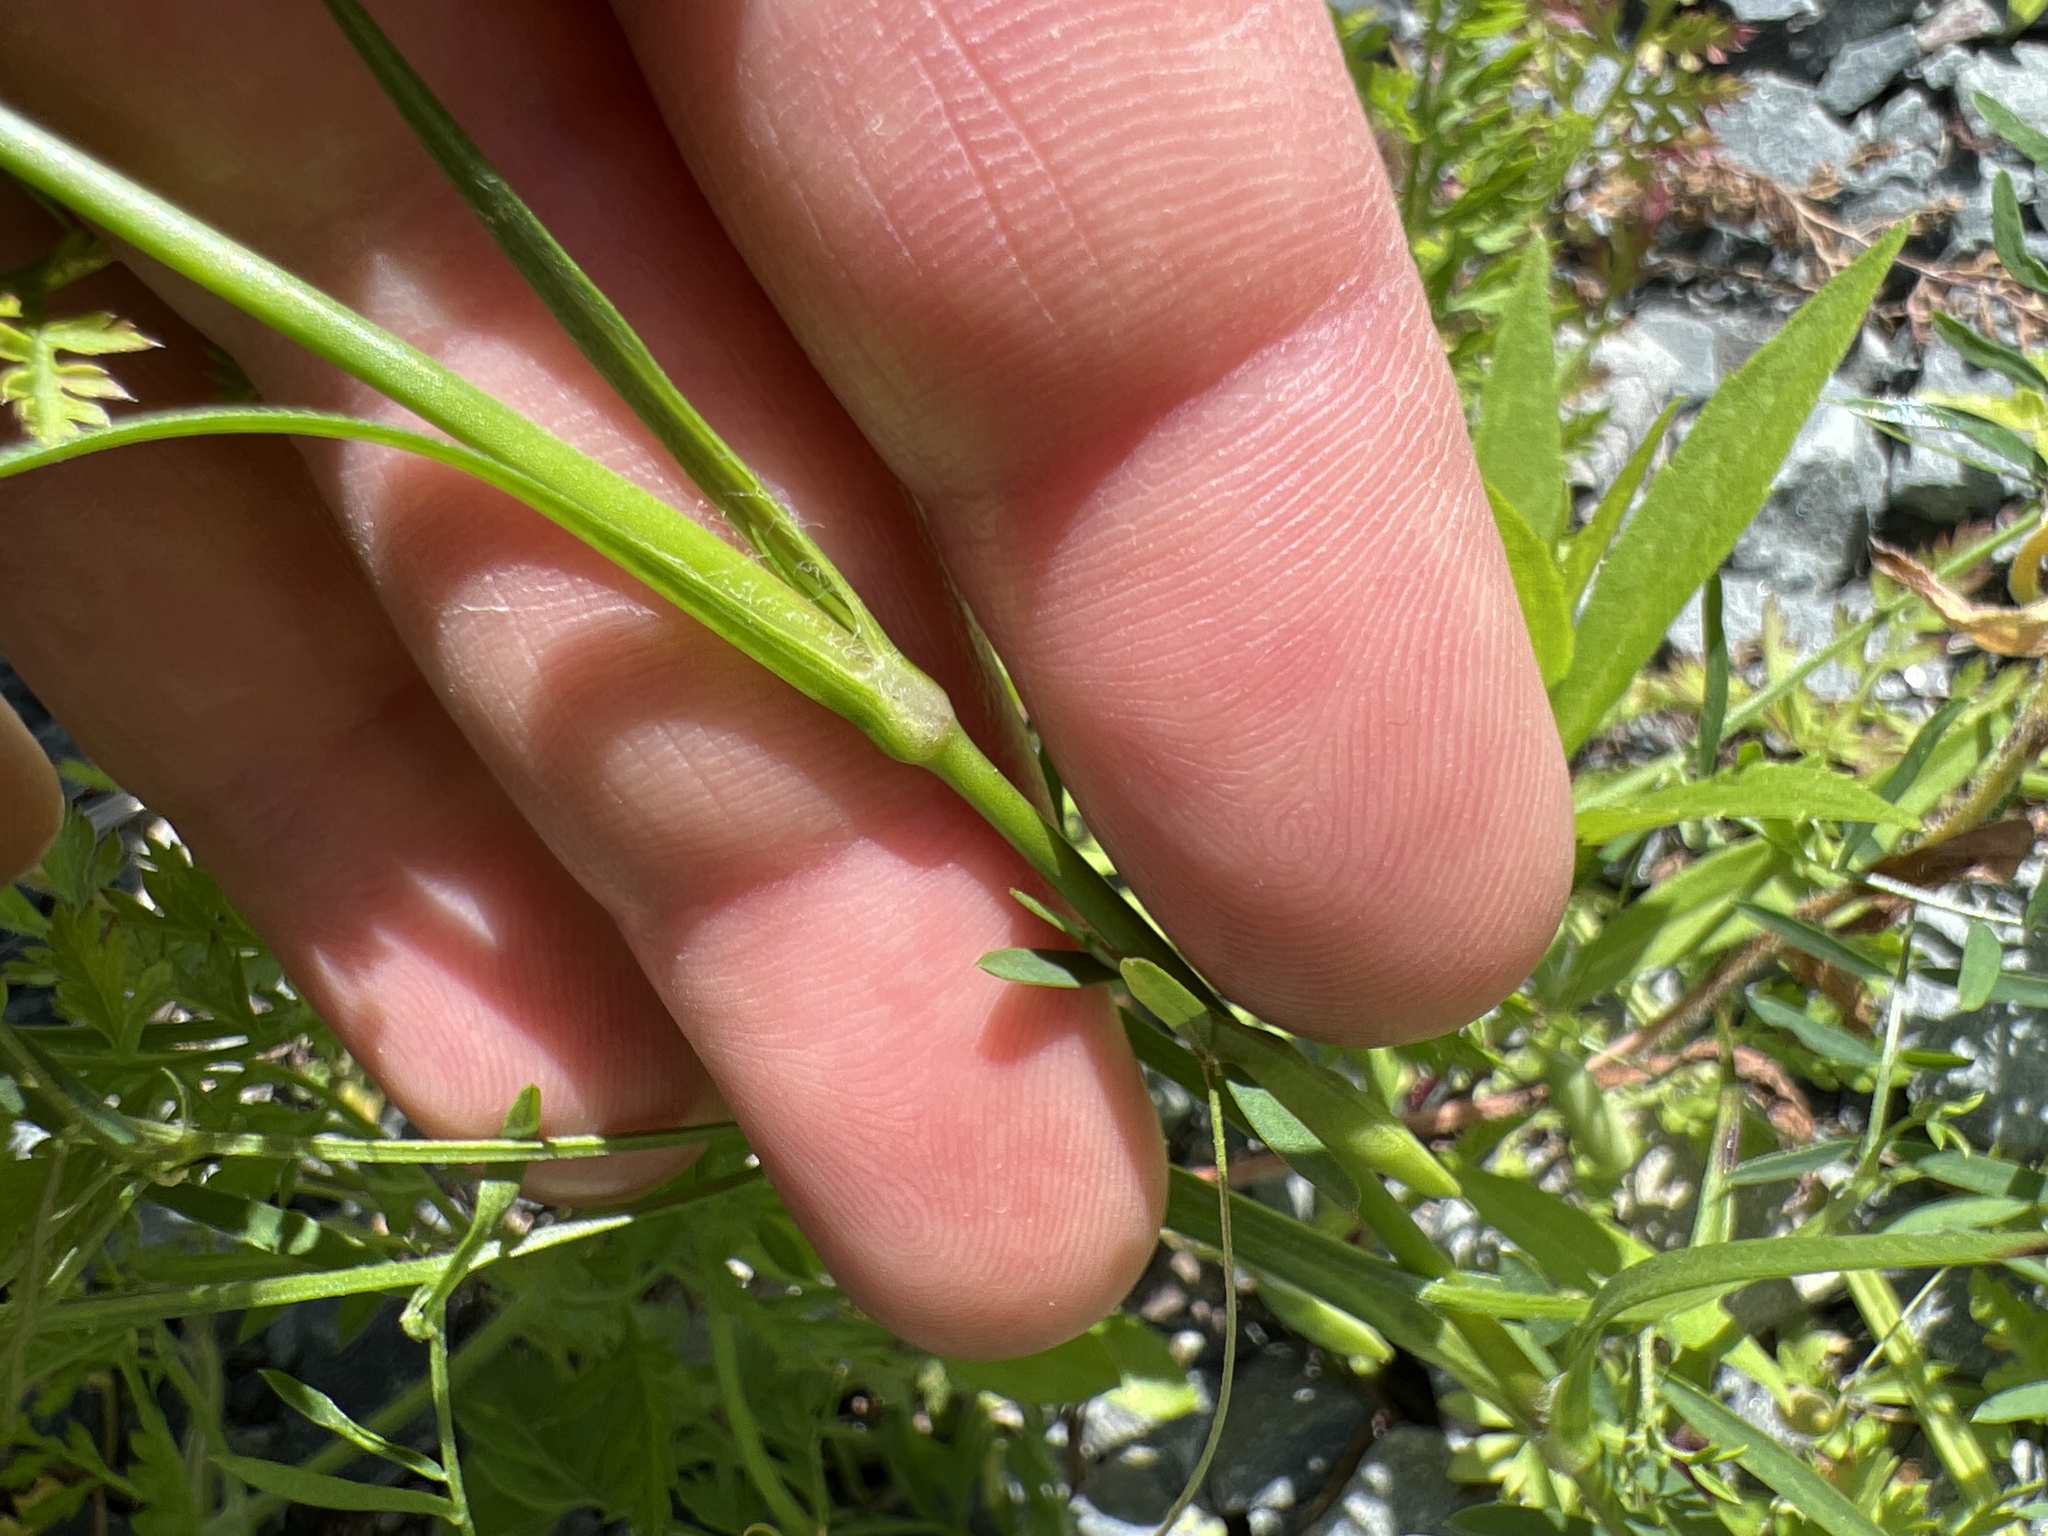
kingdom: Plantae
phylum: Tracheophyta
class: Magnoliopsida
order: Caryophyllales
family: Caryophyllaceae
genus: Dianthus
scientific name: Dianthus armeria
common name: Deptford pink
